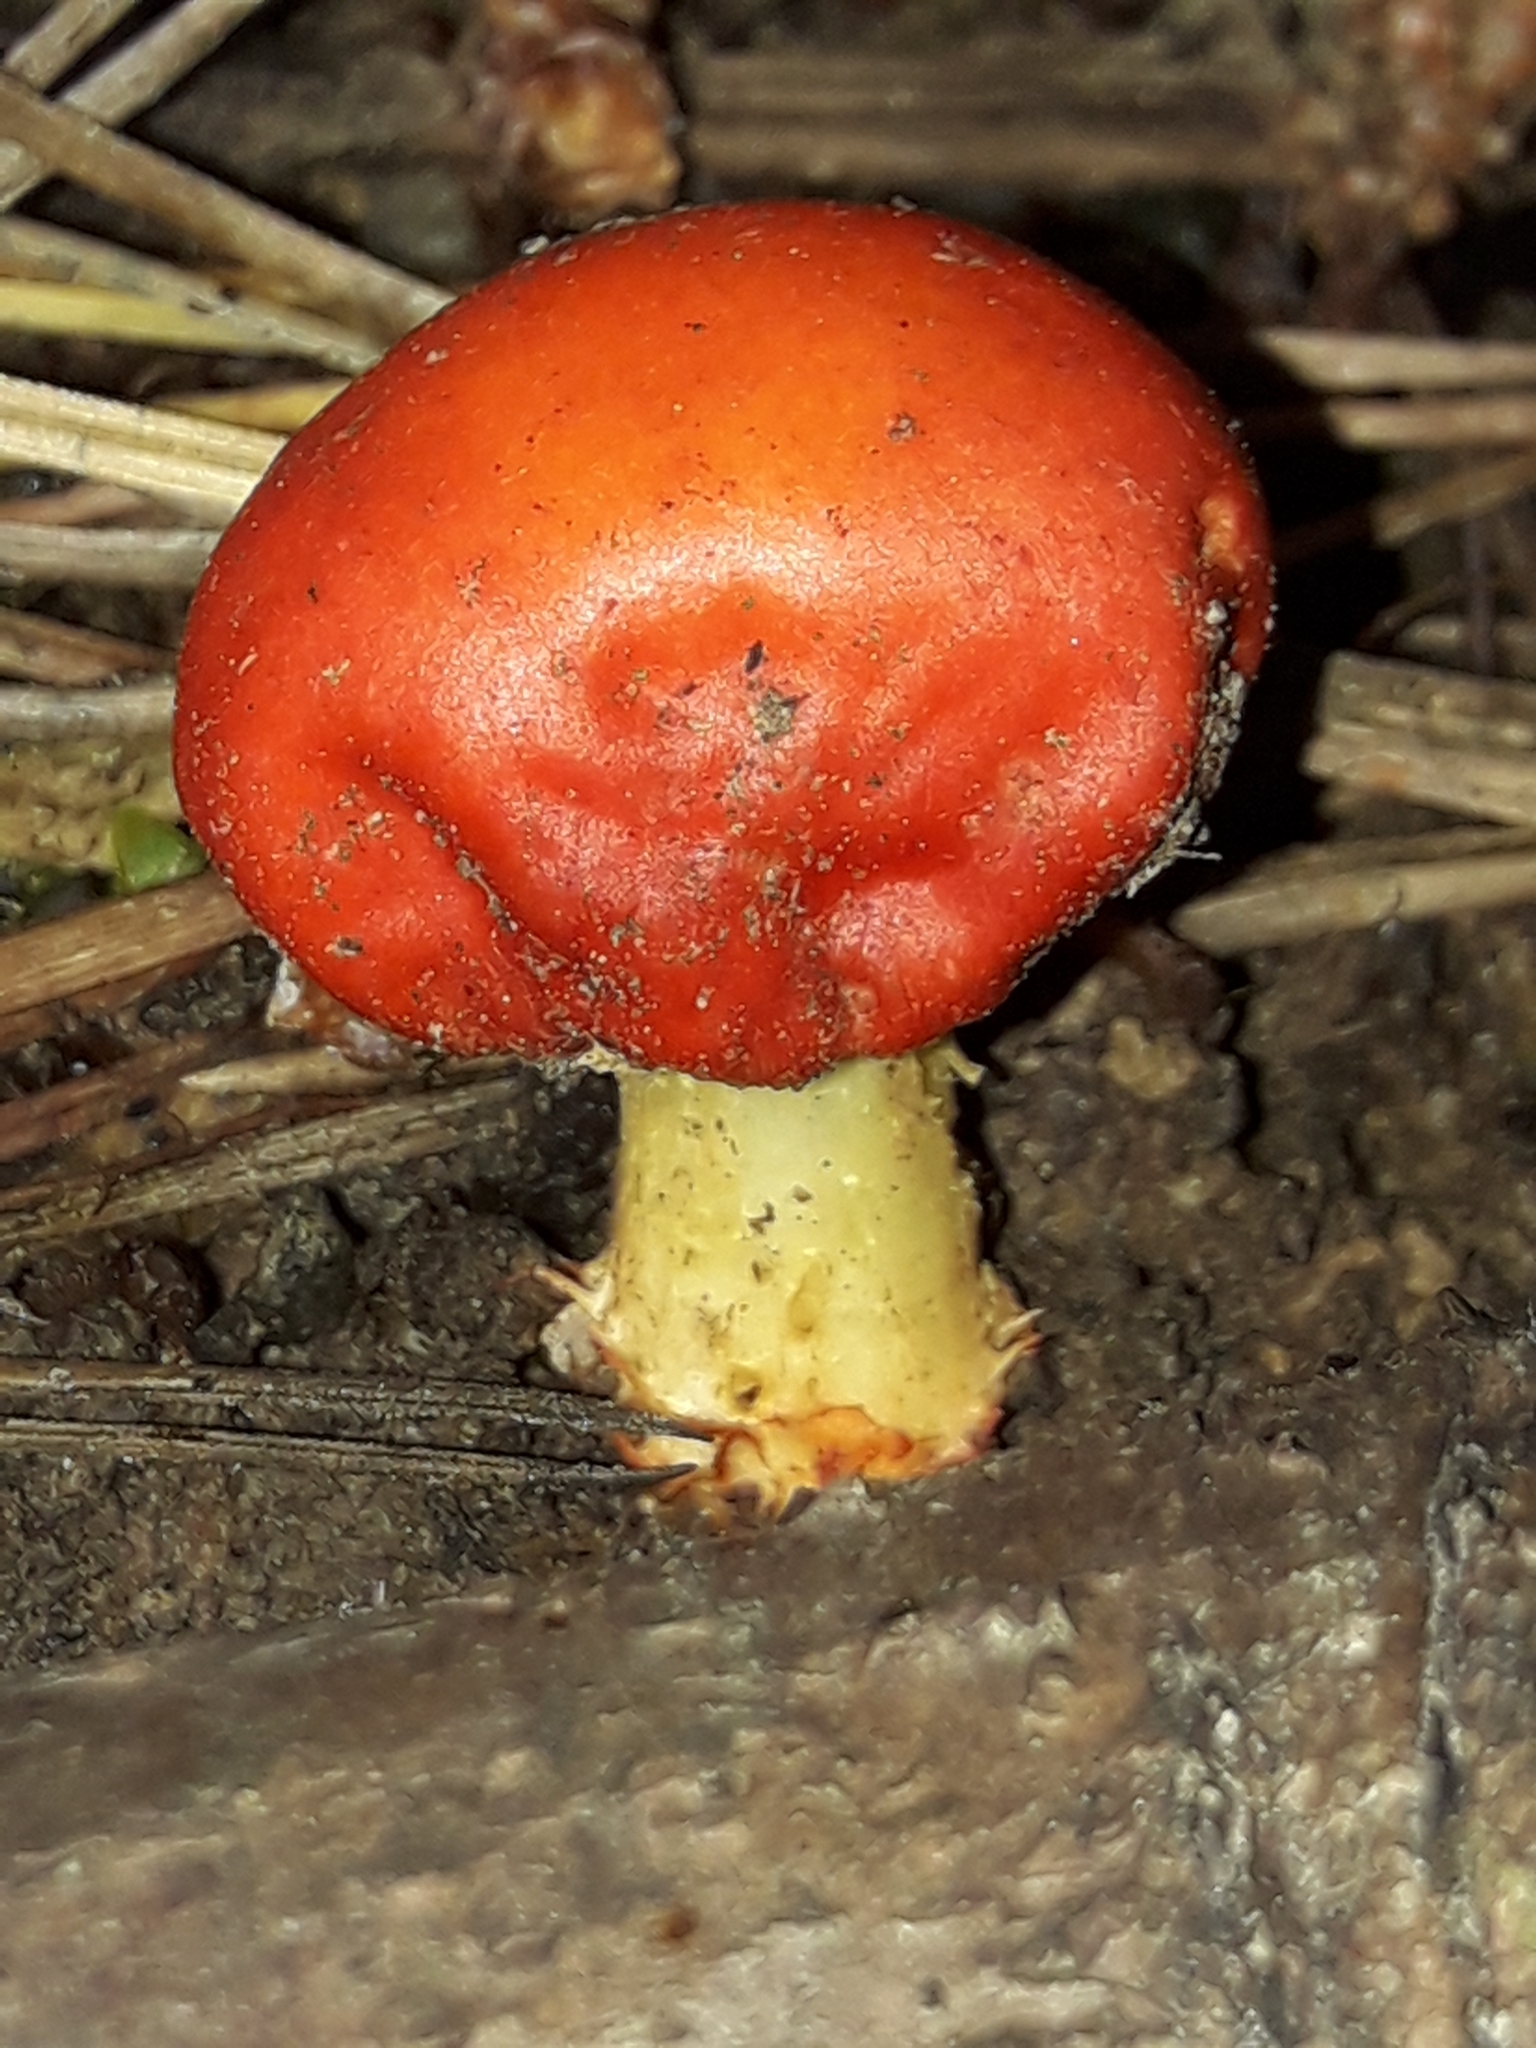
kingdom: Fungi
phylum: Basidiomycota
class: Agaricomycetes
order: Agaricales
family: Strophariaceae
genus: Leratiomyces
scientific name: Leratiomyces erythrocephalus
